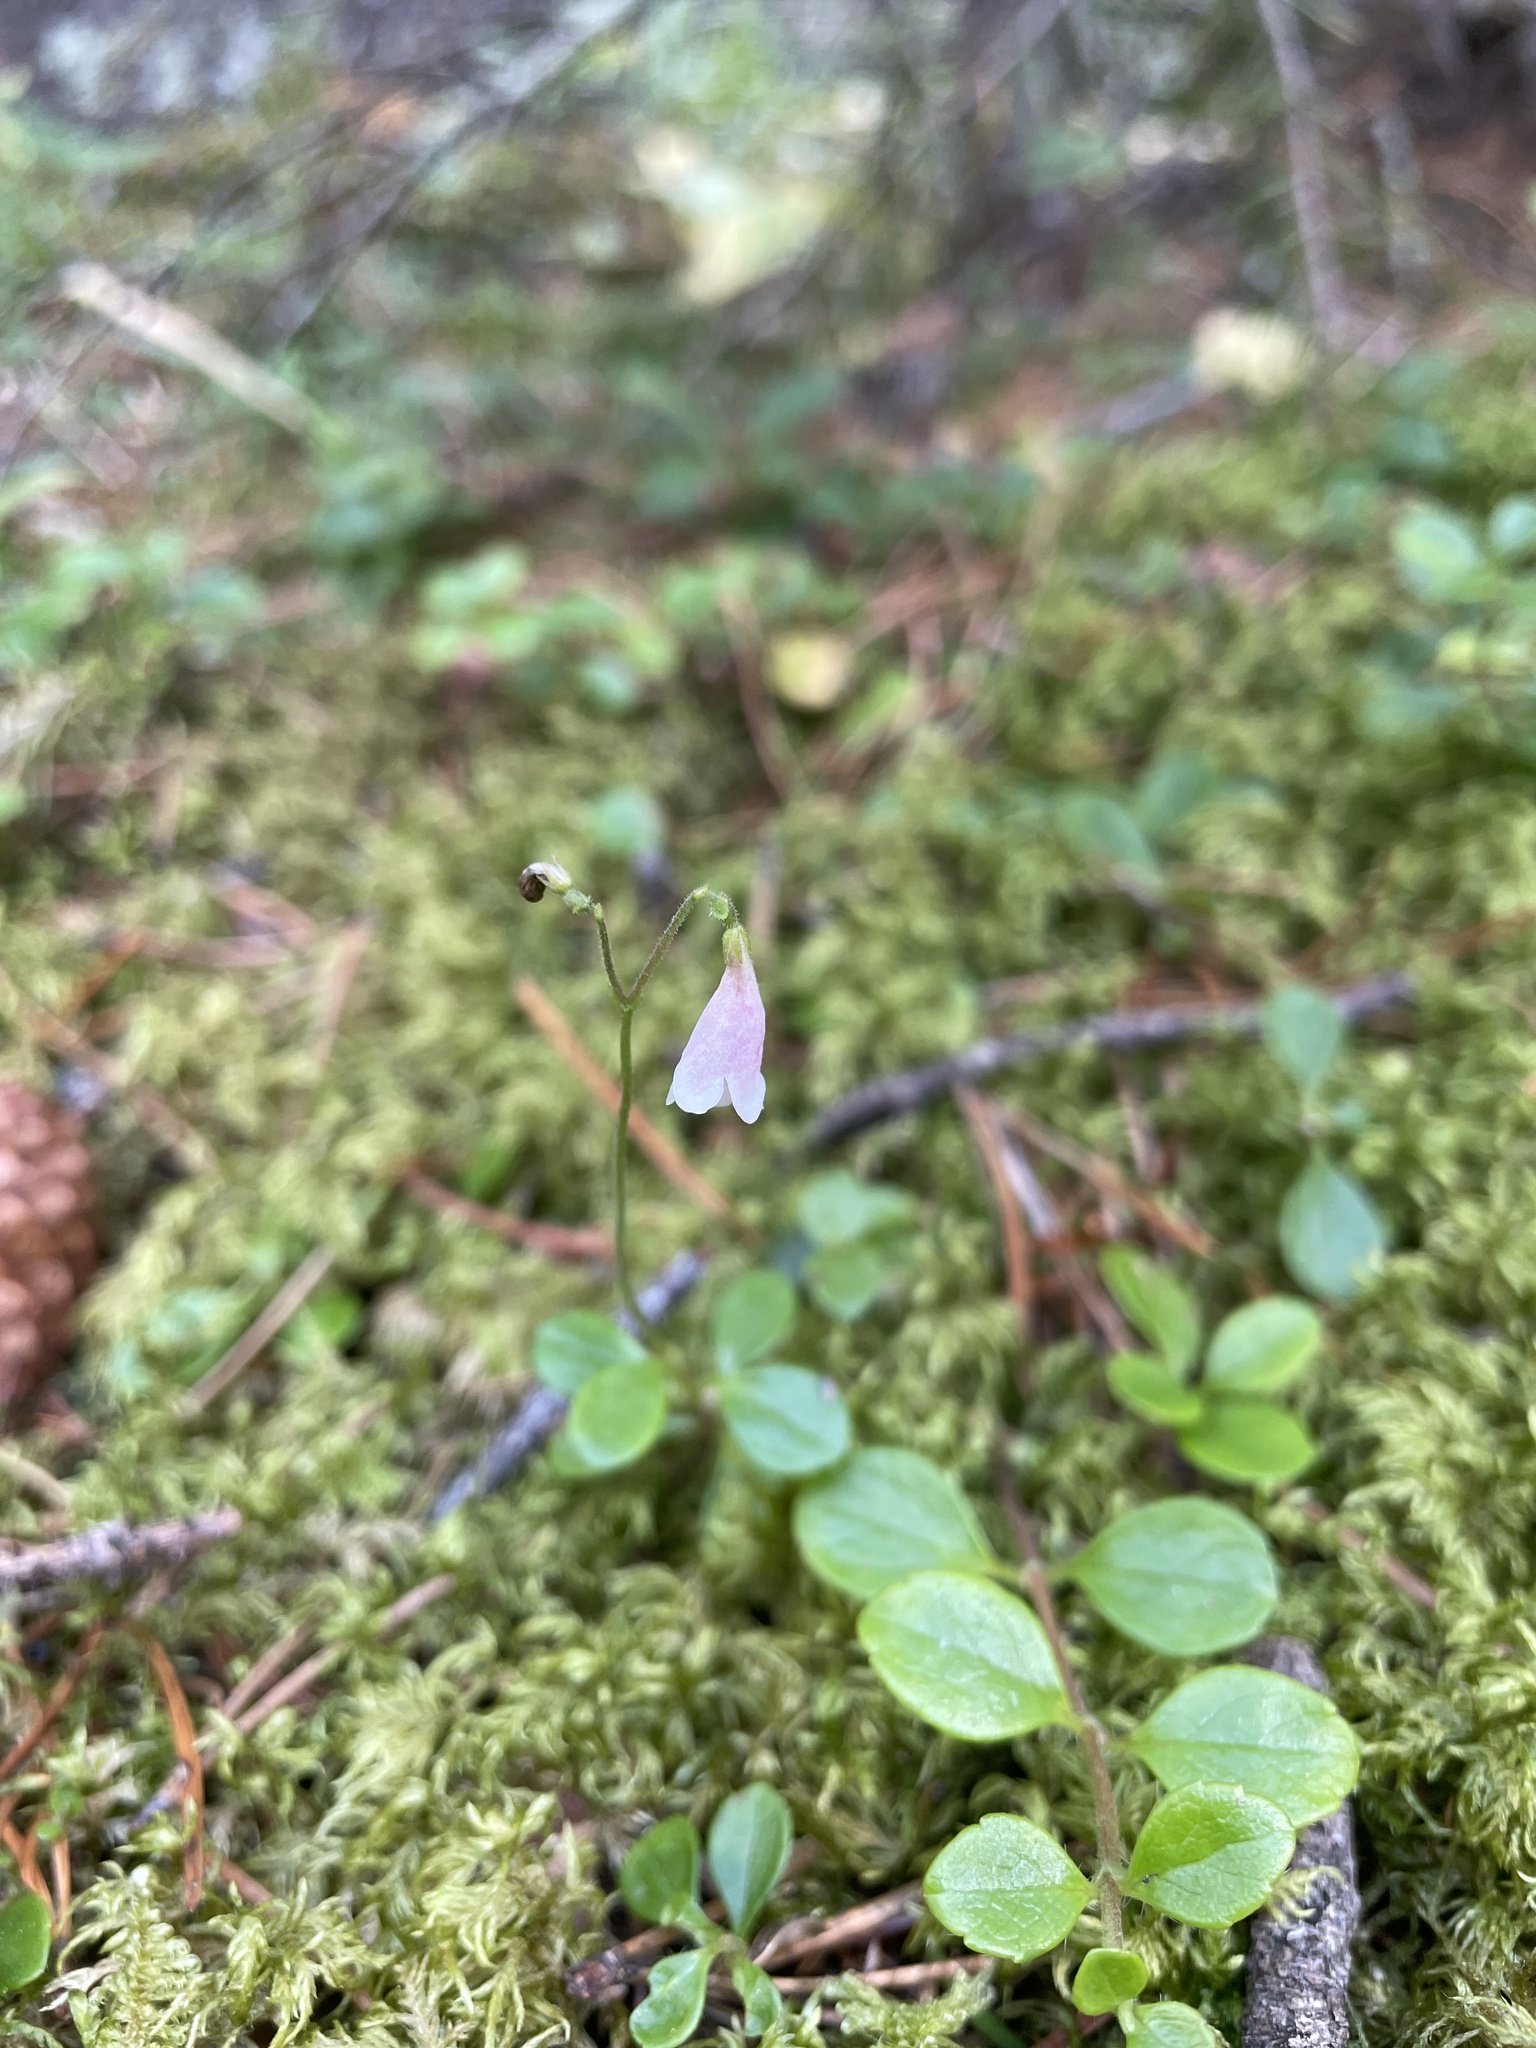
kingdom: Plantae
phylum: Tracheophyta
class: Magnoliopsida
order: Dipsacales
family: Caprifoliaceae
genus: Linnaea
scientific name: Linnaea borealis
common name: Twinflower
